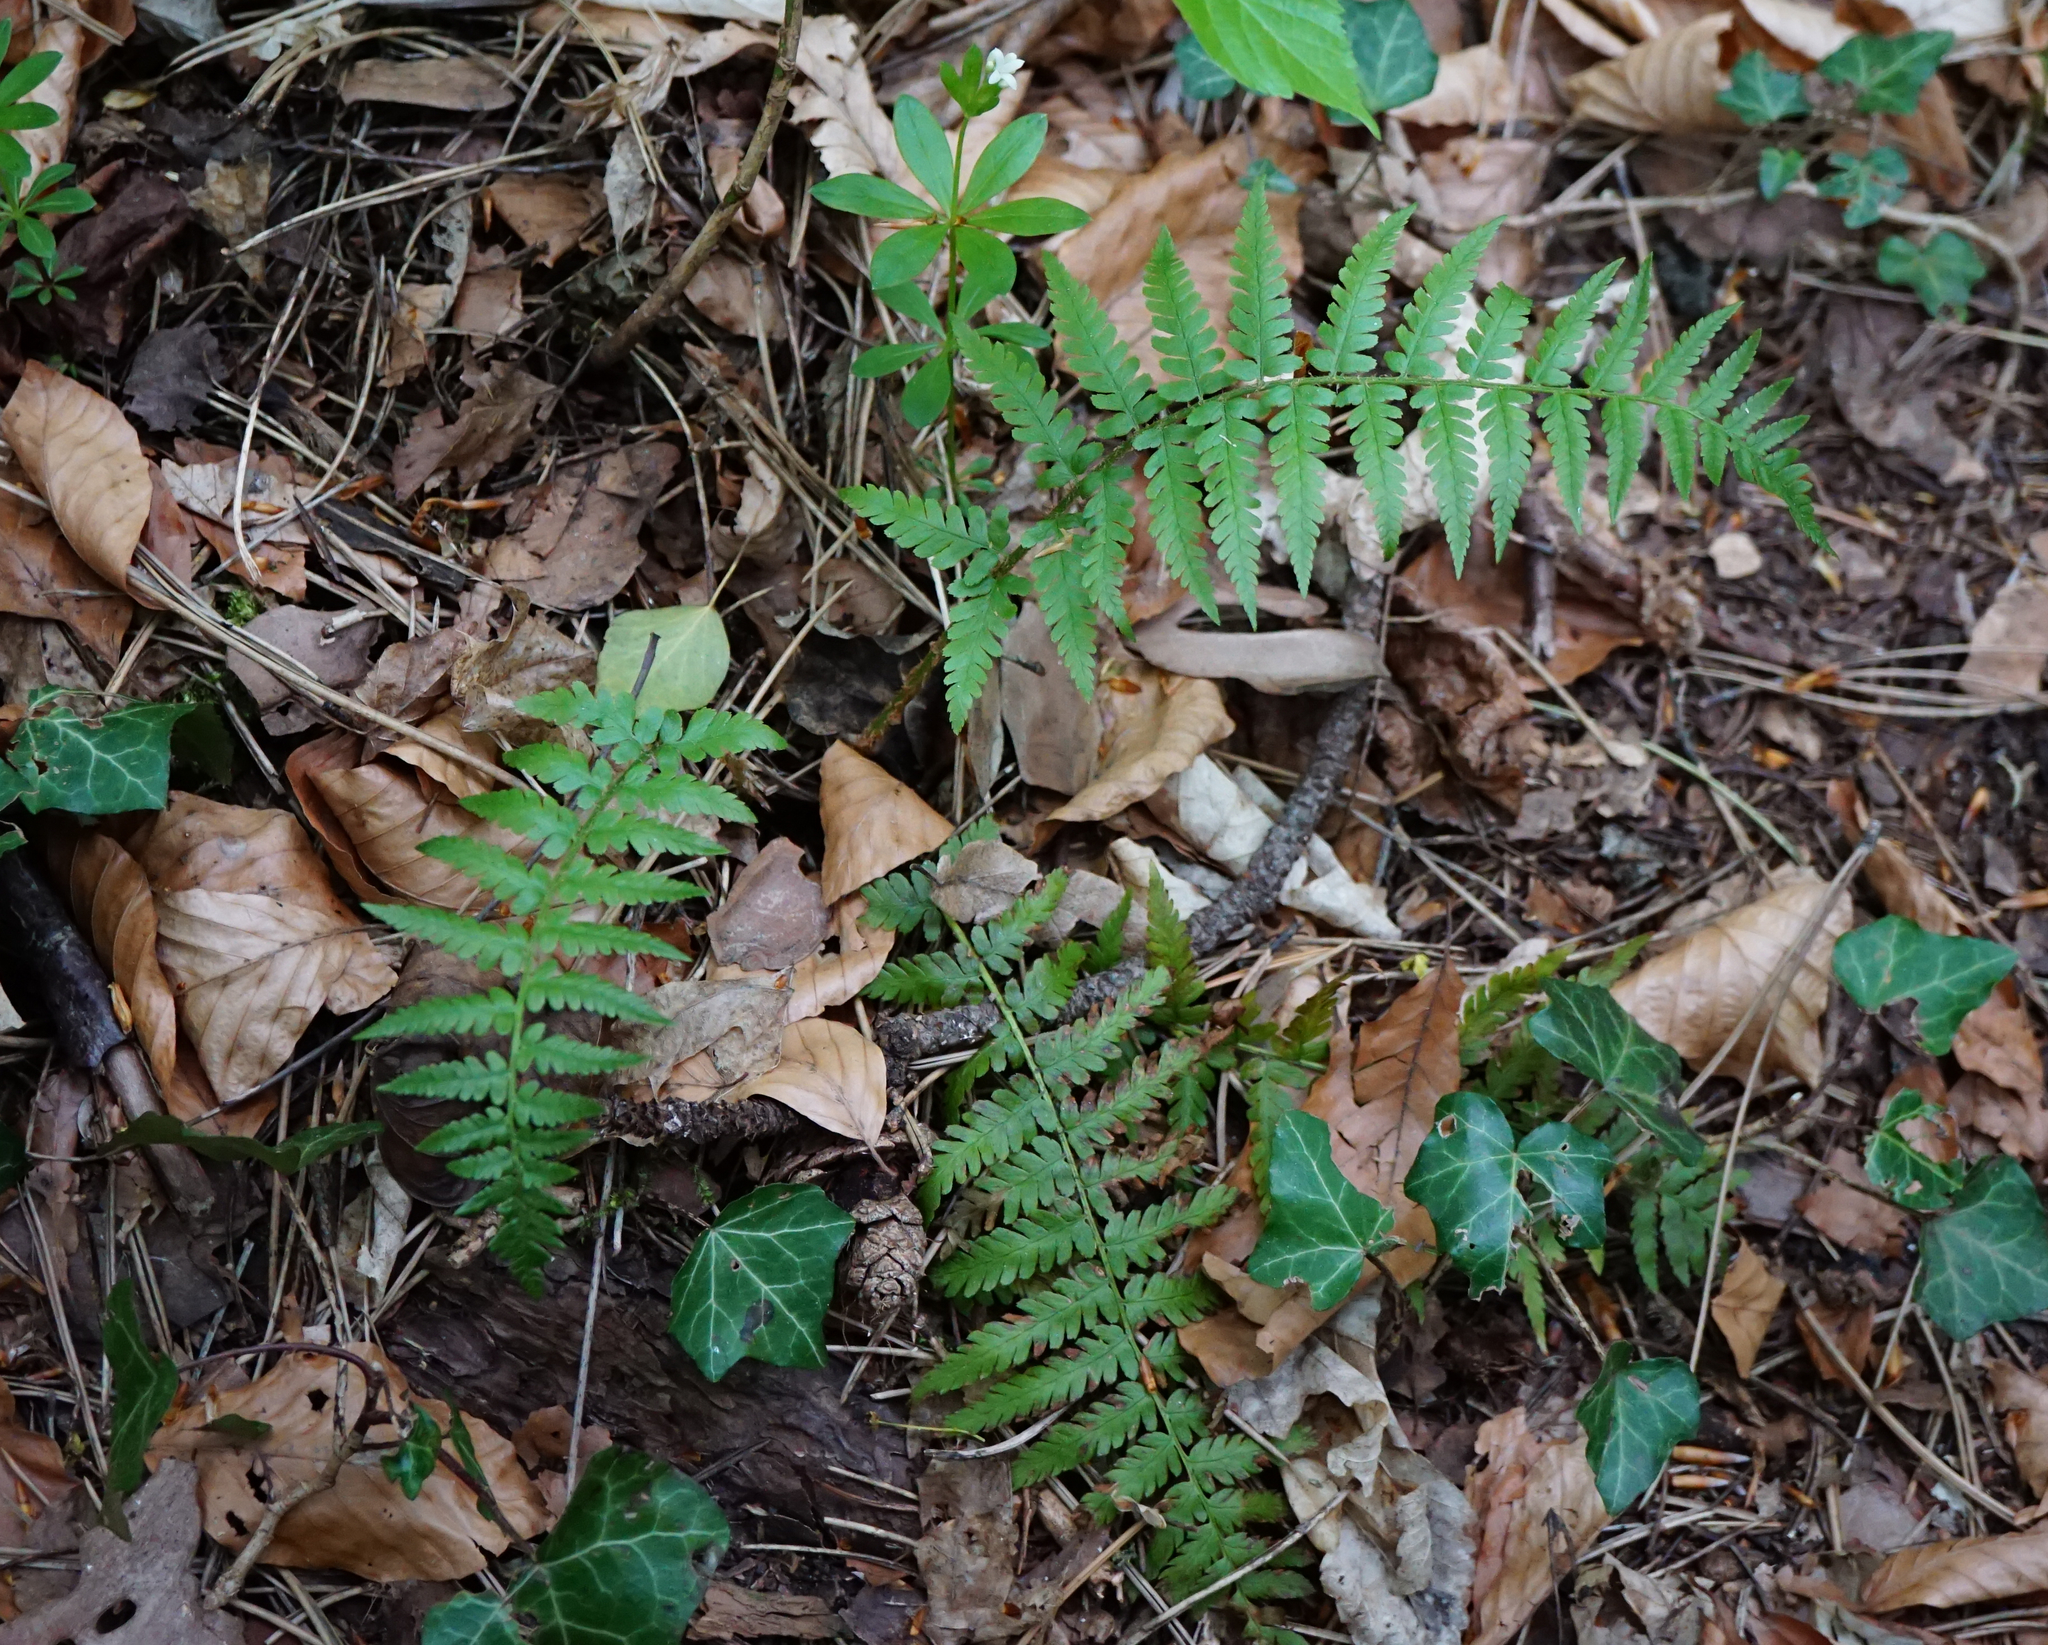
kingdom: Plantae
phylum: Tracheophyta
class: Polypodiopsida
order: Polypodiales
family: Dryopteridaceae
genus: Dryopteris
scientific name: Dryopteris filix-mas
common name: Male fern
